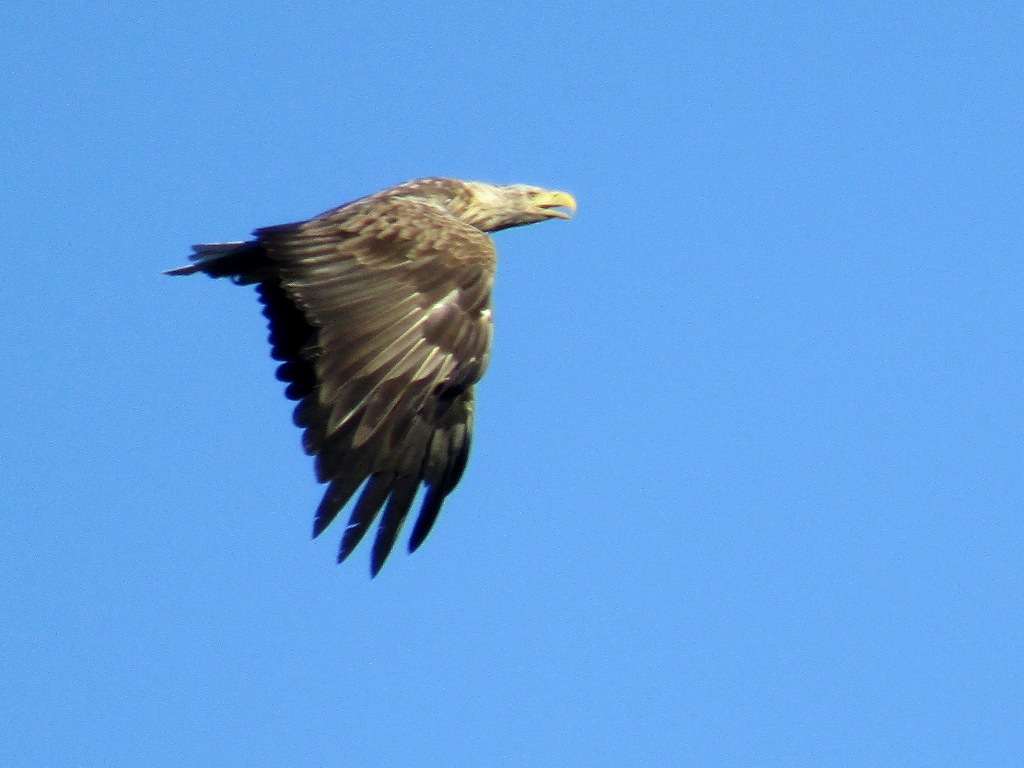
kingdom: Animalia
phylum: Chordata
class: Aves
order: Accipitriformes
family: Accipitridae
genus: Haliaeetus
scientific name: Haliaeetus albicilla
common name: White-tailed eagle
